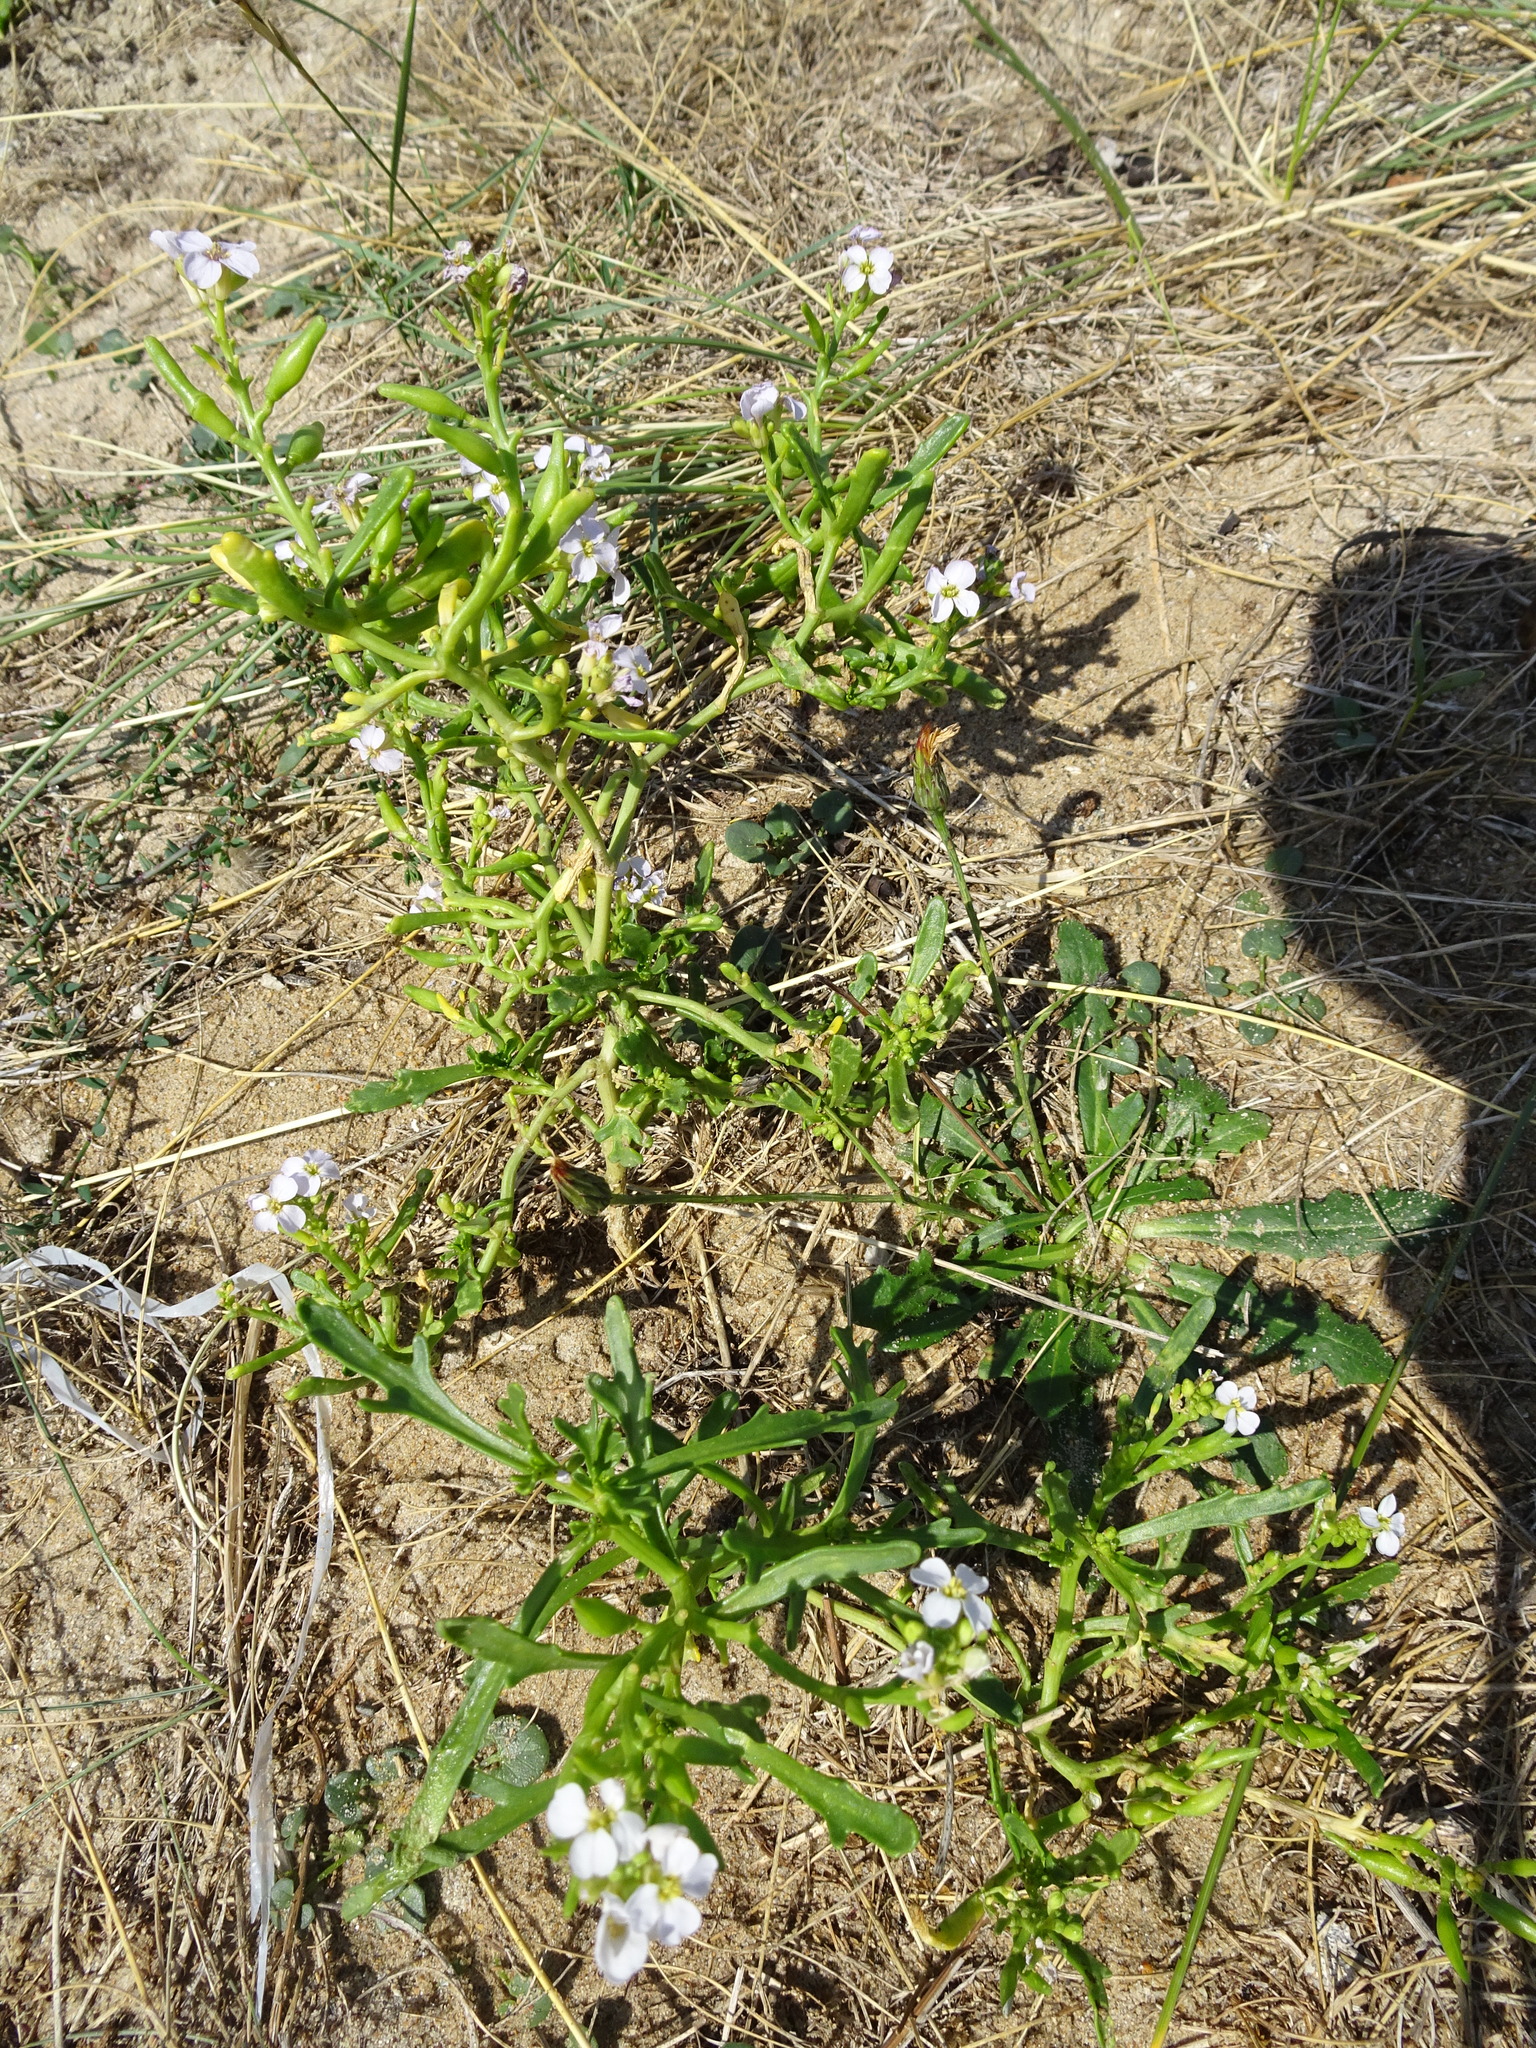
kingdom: Plantae
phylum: Tracheophyta
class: Magnoliopsida
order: Brassicales
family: Brassicaceae
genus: Cakile
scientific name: Cakile maritima
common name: Sea rocket
